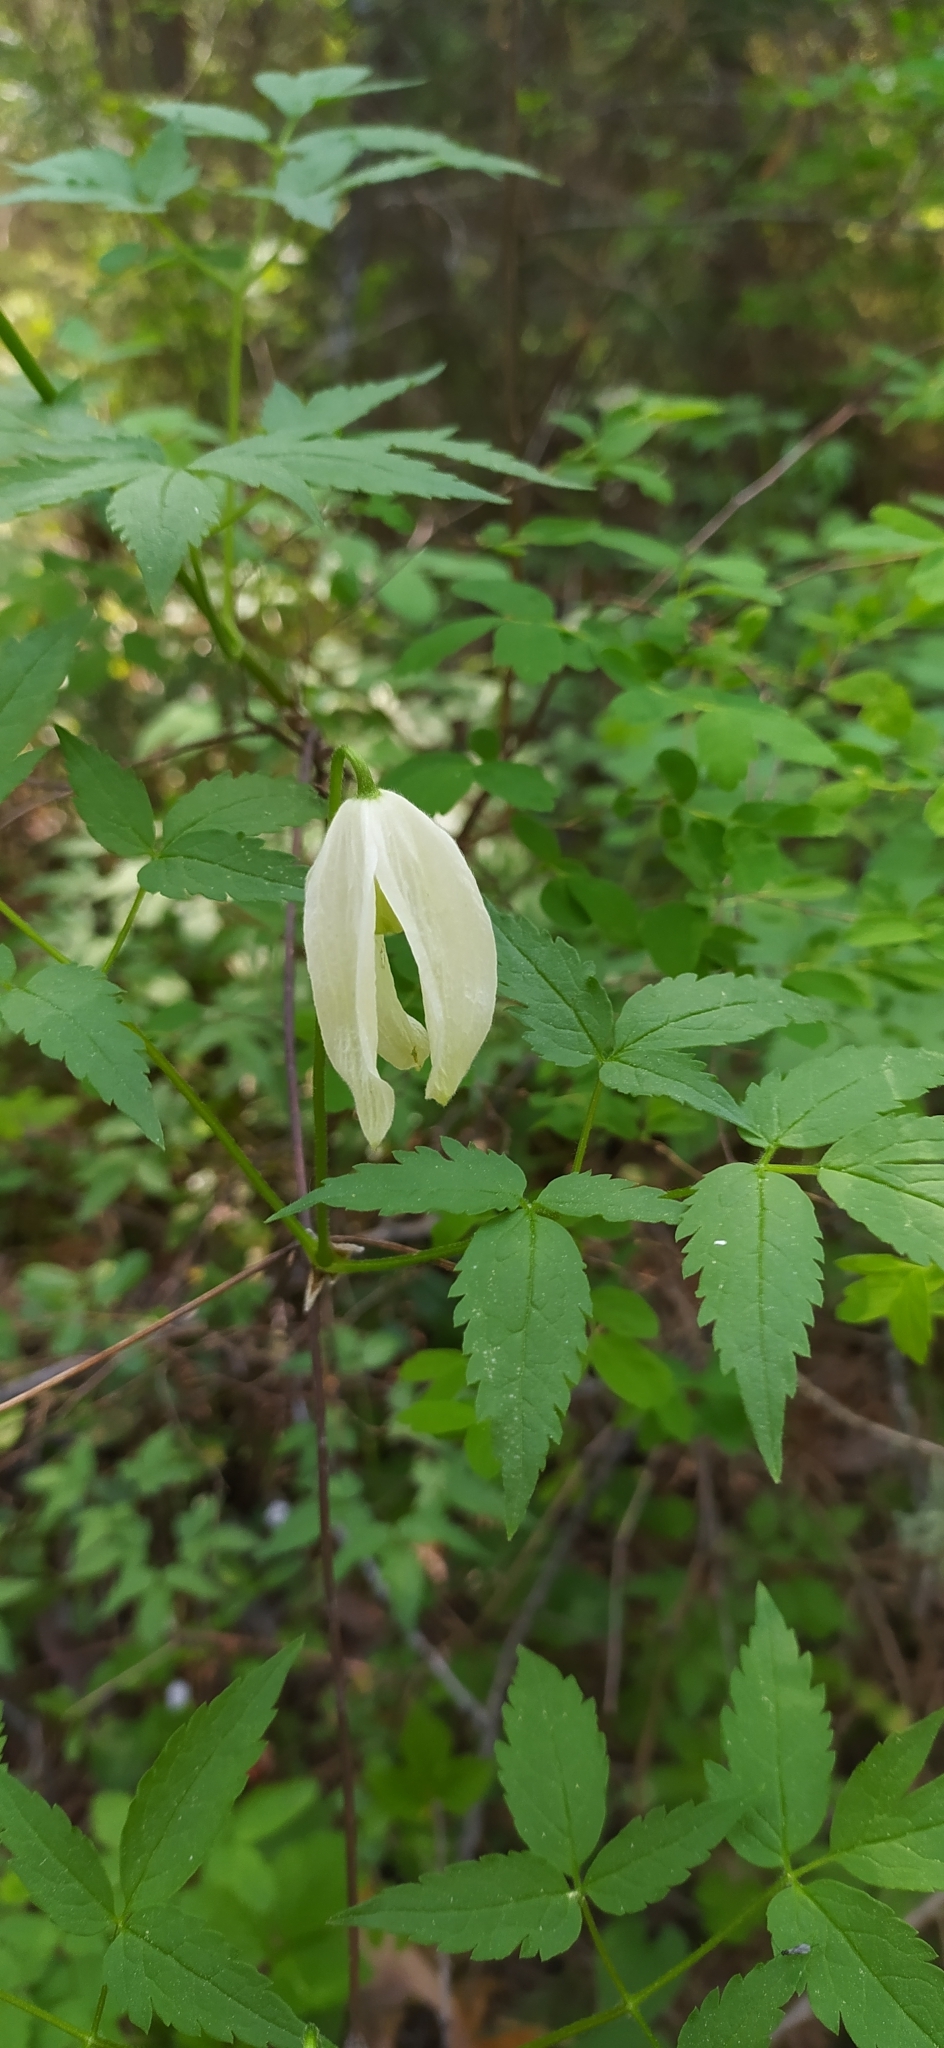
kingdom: Plantae
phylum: Tracheophyta
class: Magnoliopsida
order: Ranunculales
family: Ranunculaceae
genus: Clematis
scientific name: Clematis sibirica
